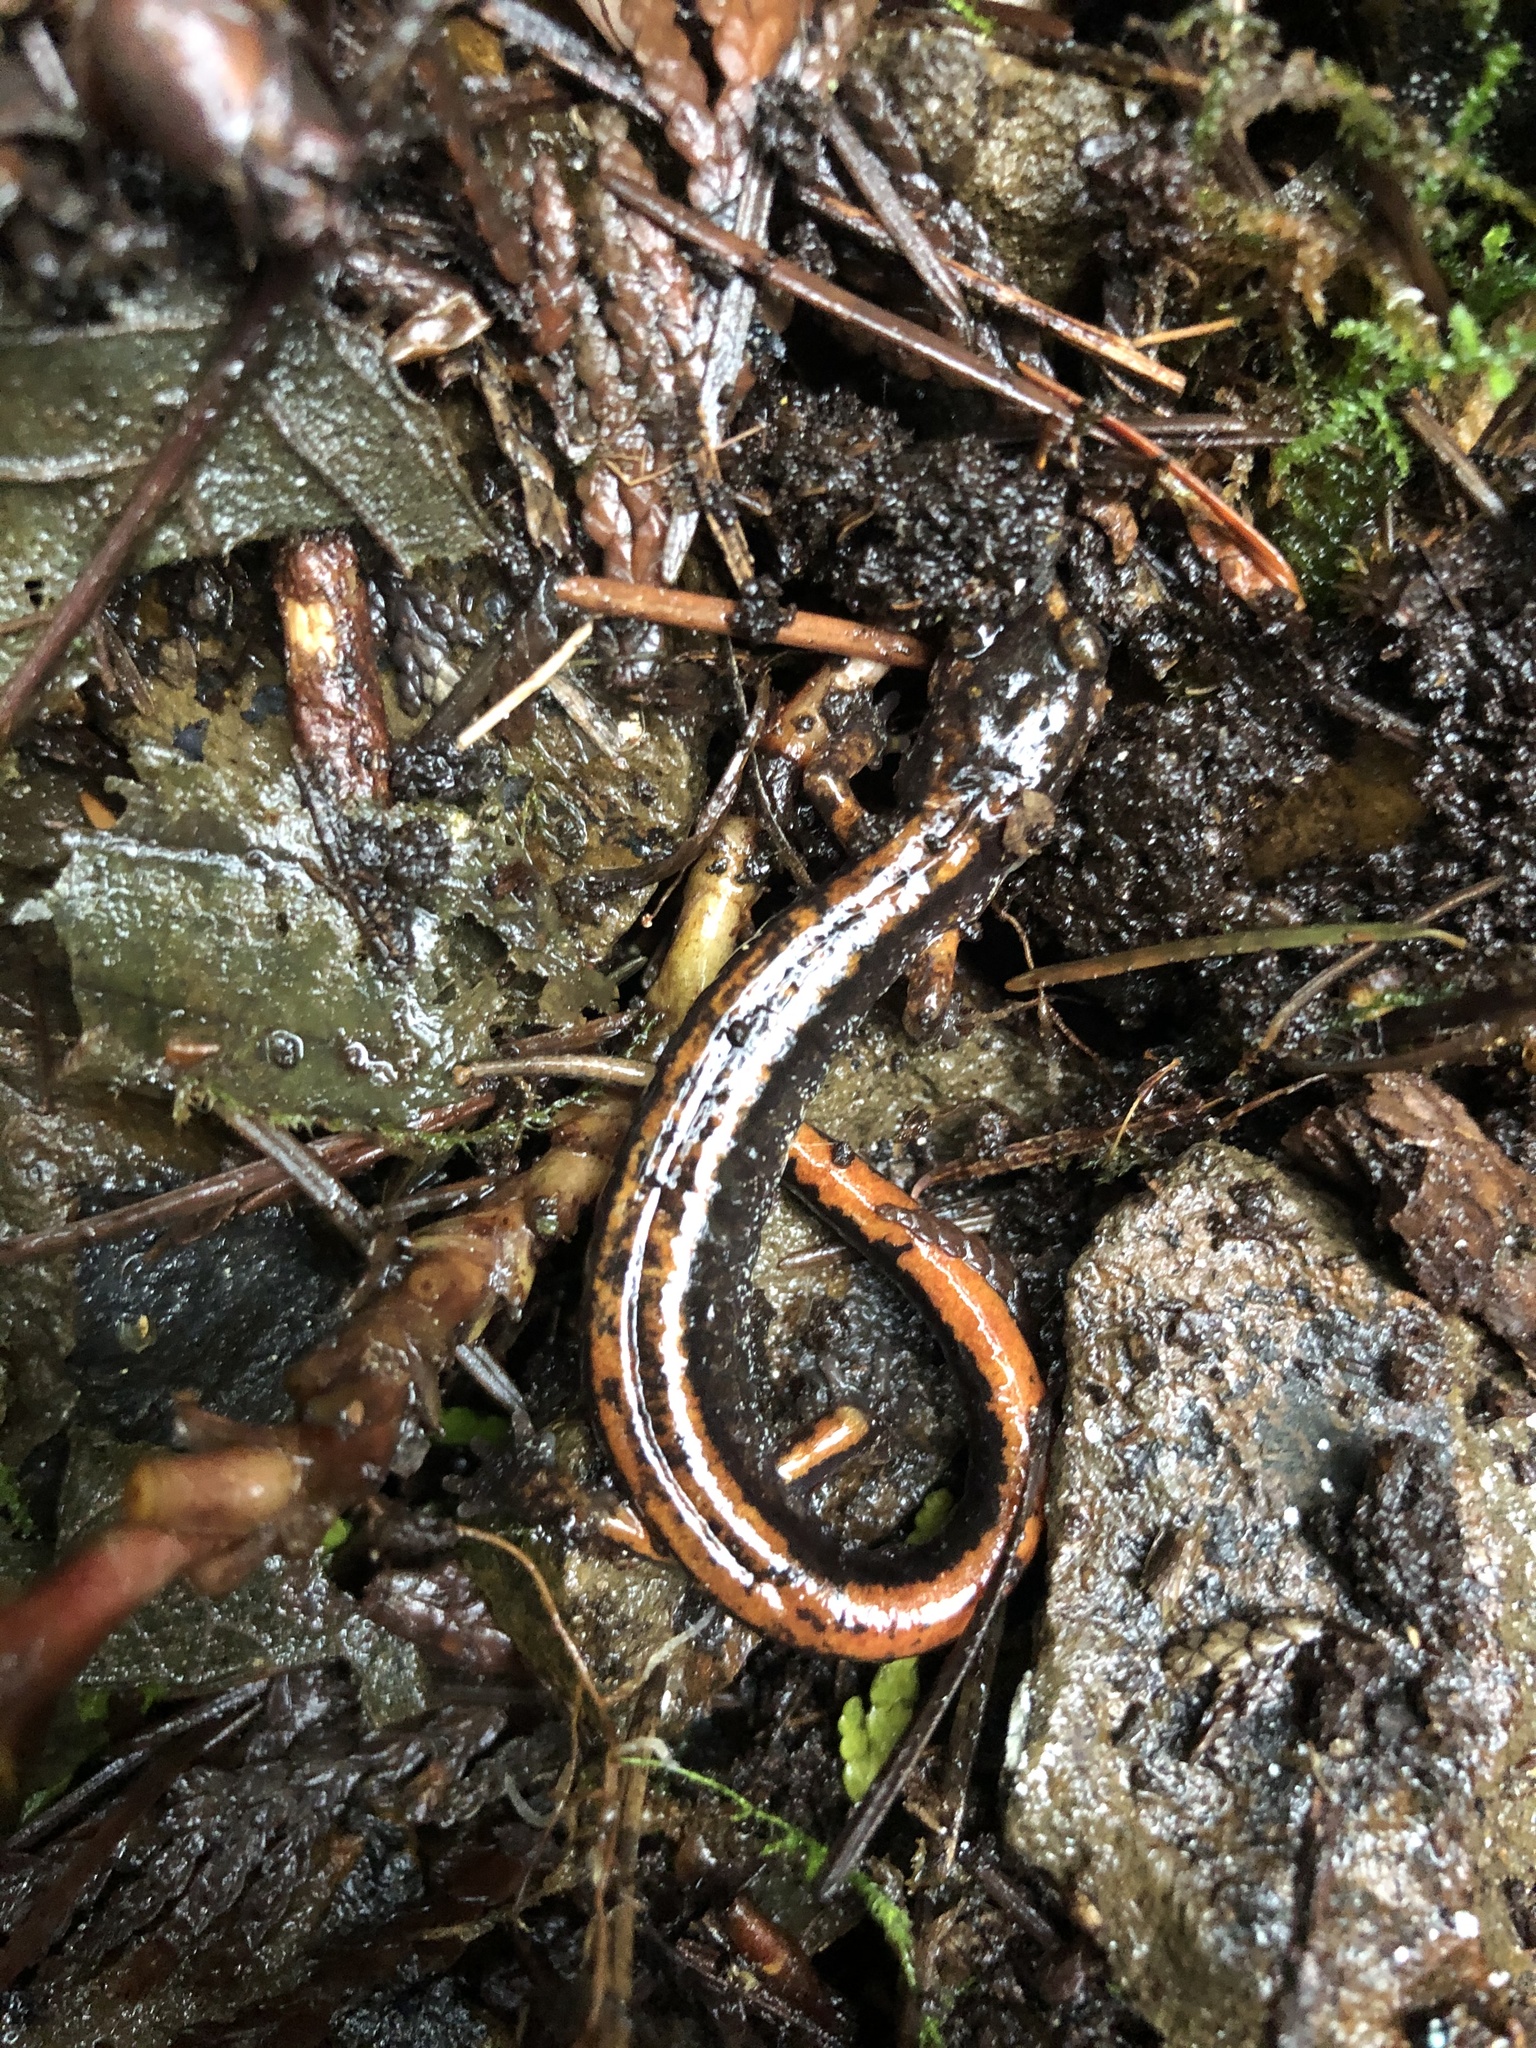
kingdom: Animalia
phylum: Chordata
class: Amphibia
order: Caudata
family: Plethodontidae
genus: Plethodon
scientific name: Plethodon vehiculum
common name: Western red-backed salamander
